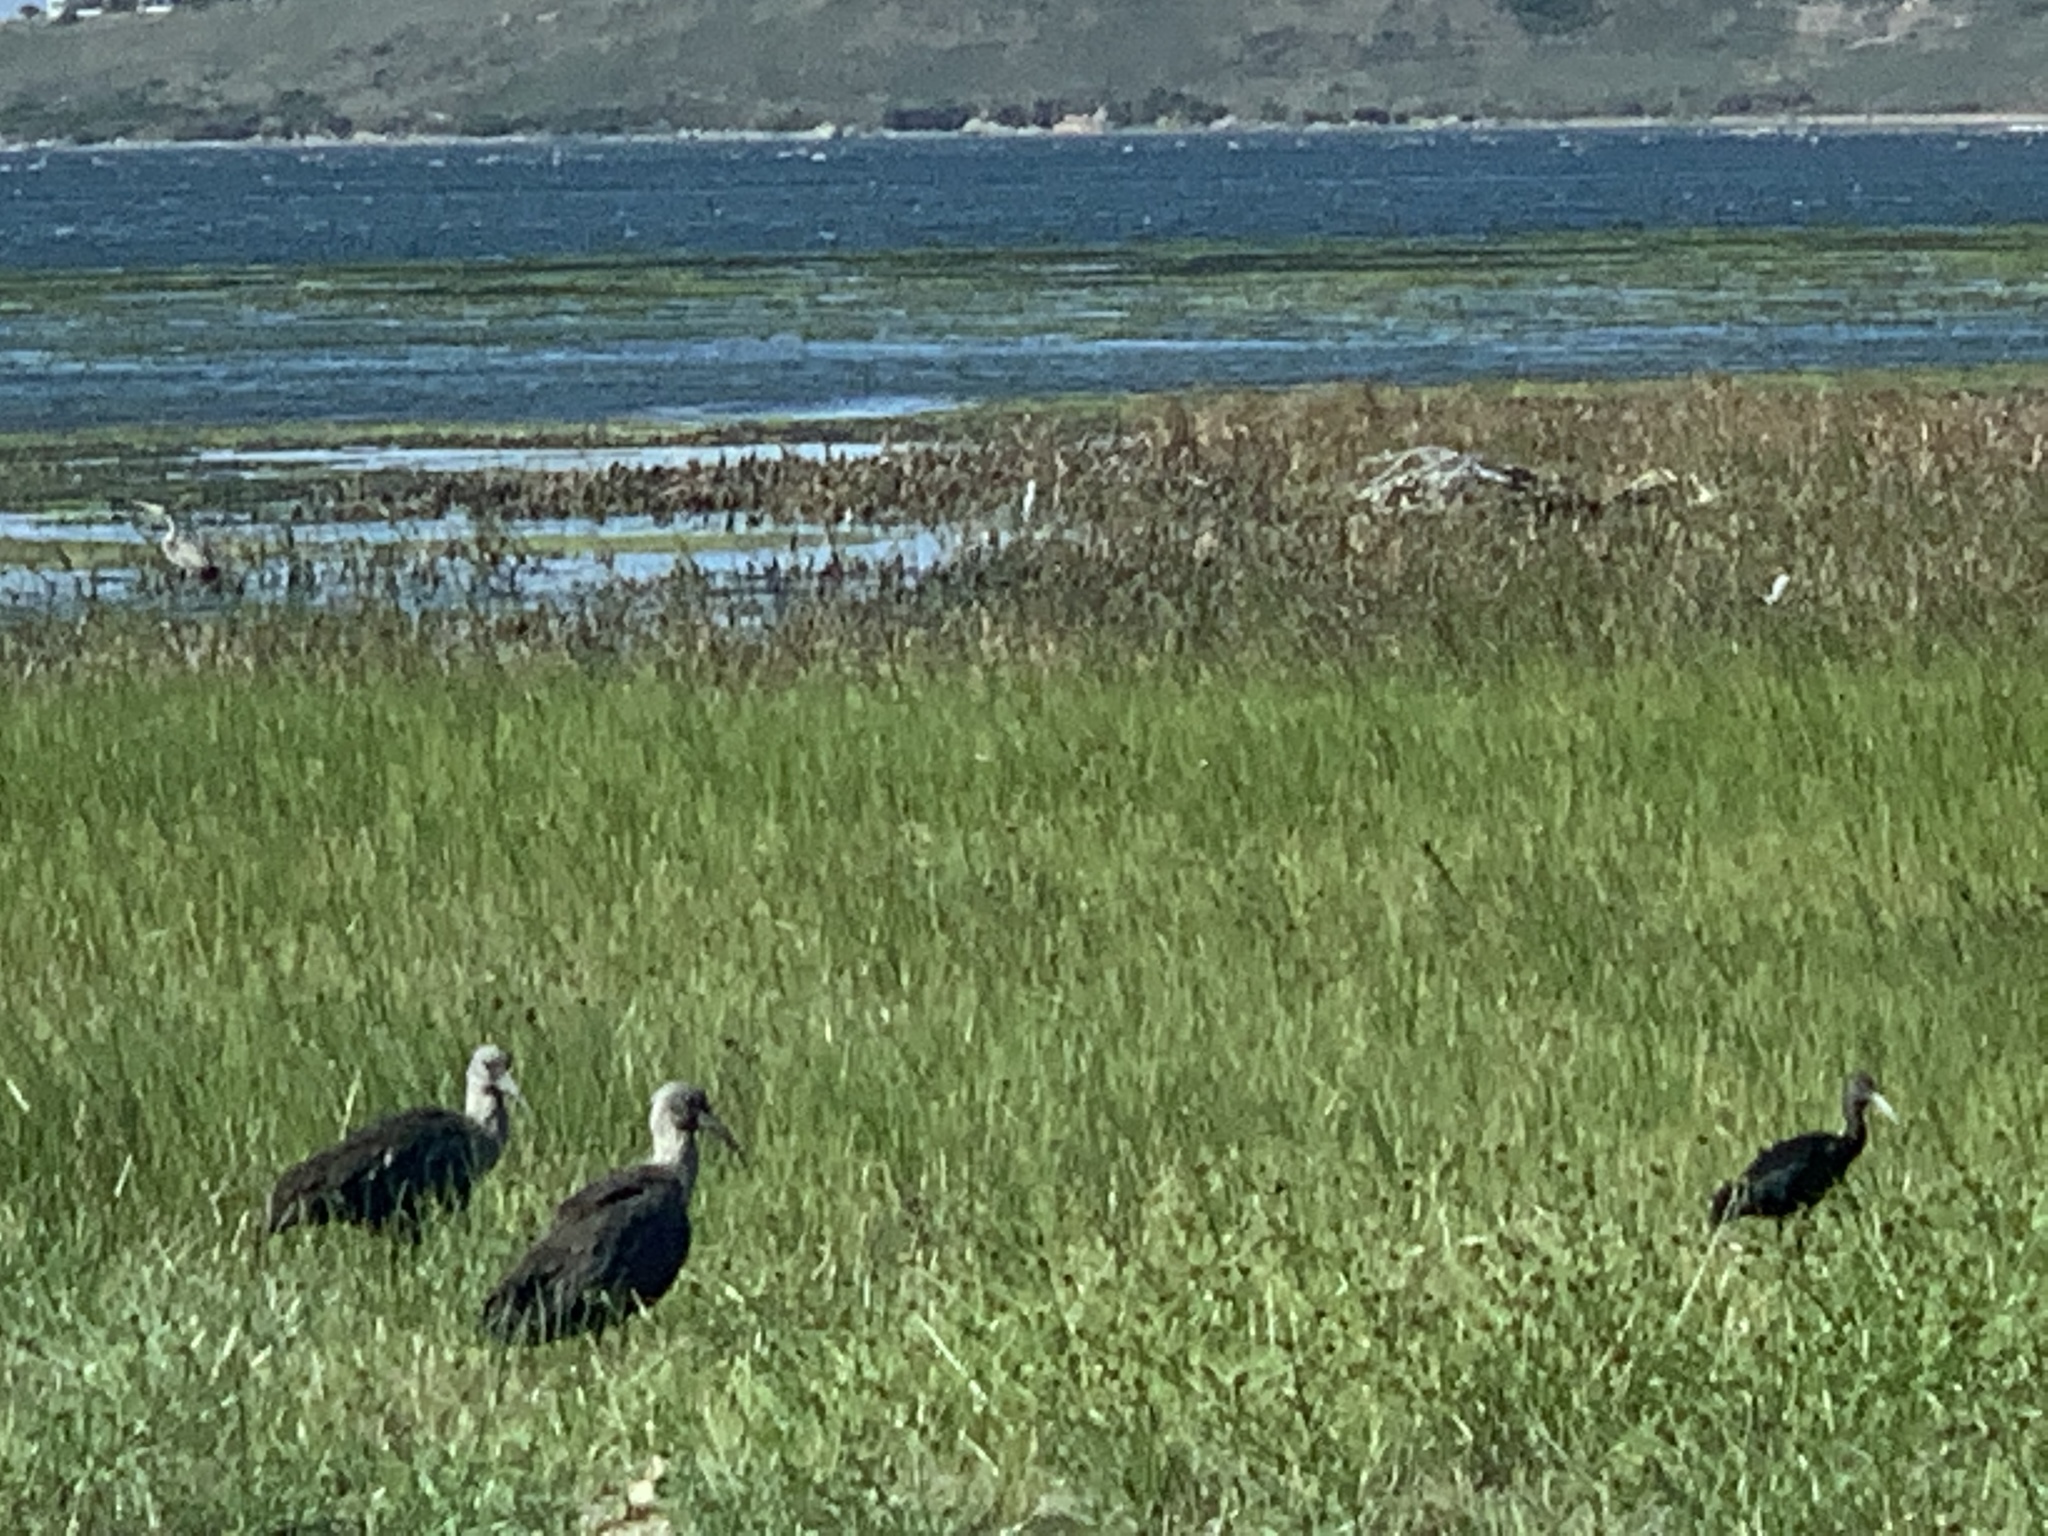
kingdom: Animalia
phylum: Chordata
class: Aves
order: Pelecaniformes
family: Threskiornithidae
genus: Bostrychia
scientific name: Bostrychia hagedash
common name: Hadada ibis
